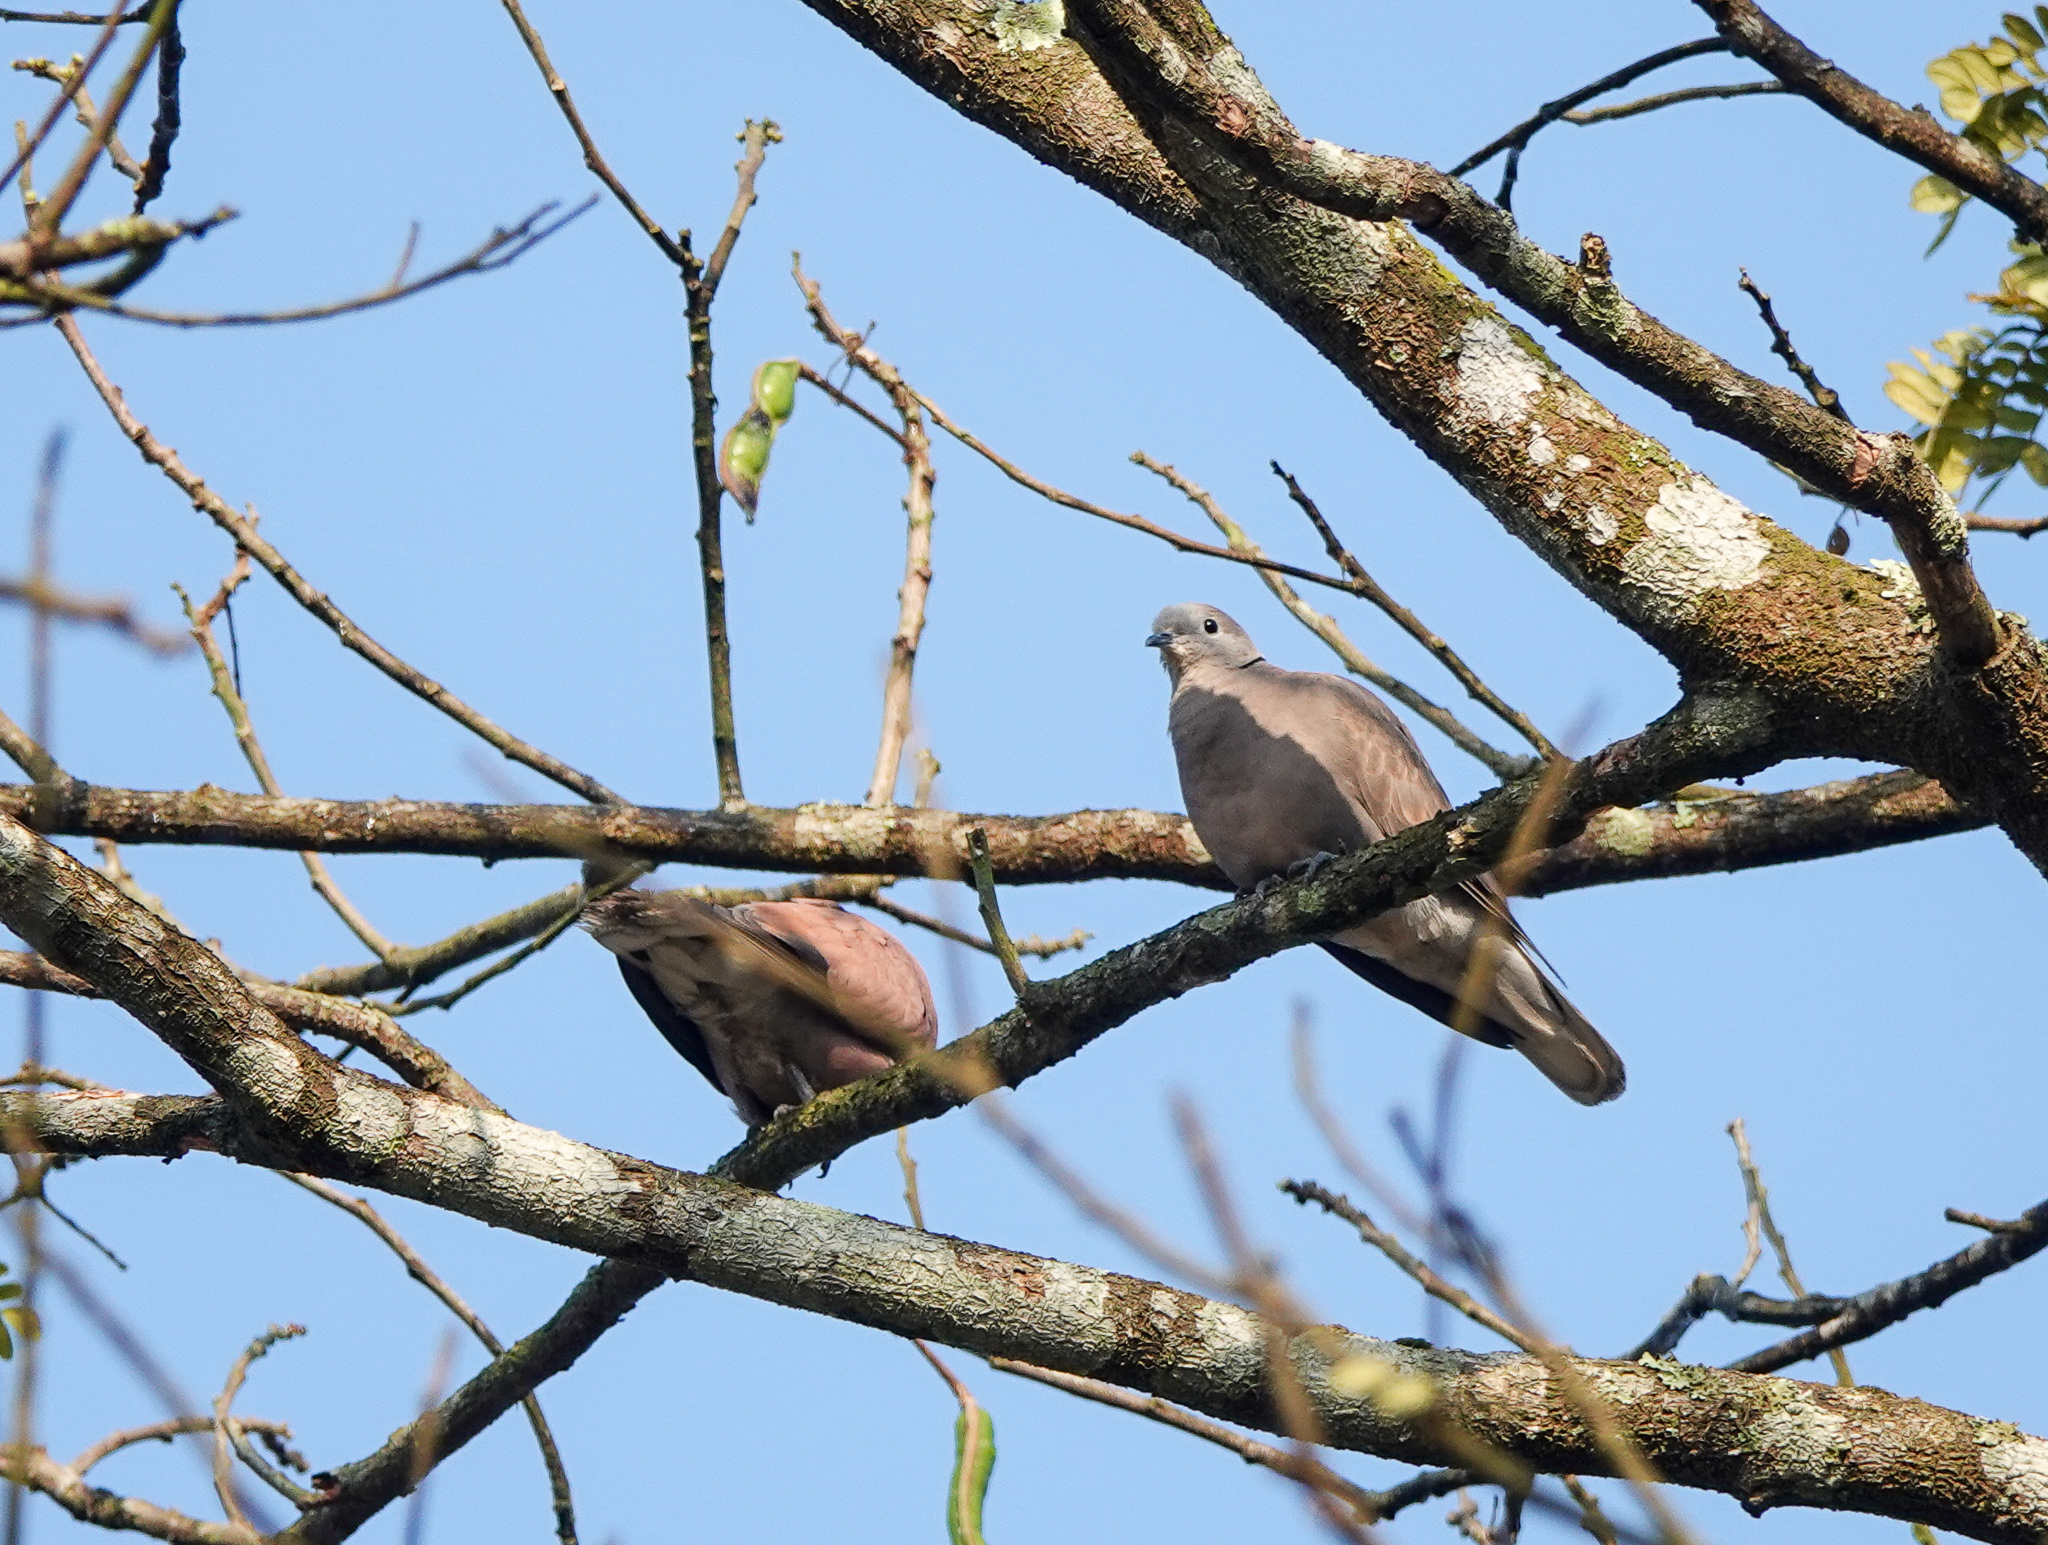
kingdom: Animalia
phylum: Chordata
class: Aves
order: Columbiformes
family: Columbidae
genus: Streptopelia
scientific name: Streptopelia tranquebarica
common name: Red turtle dove
